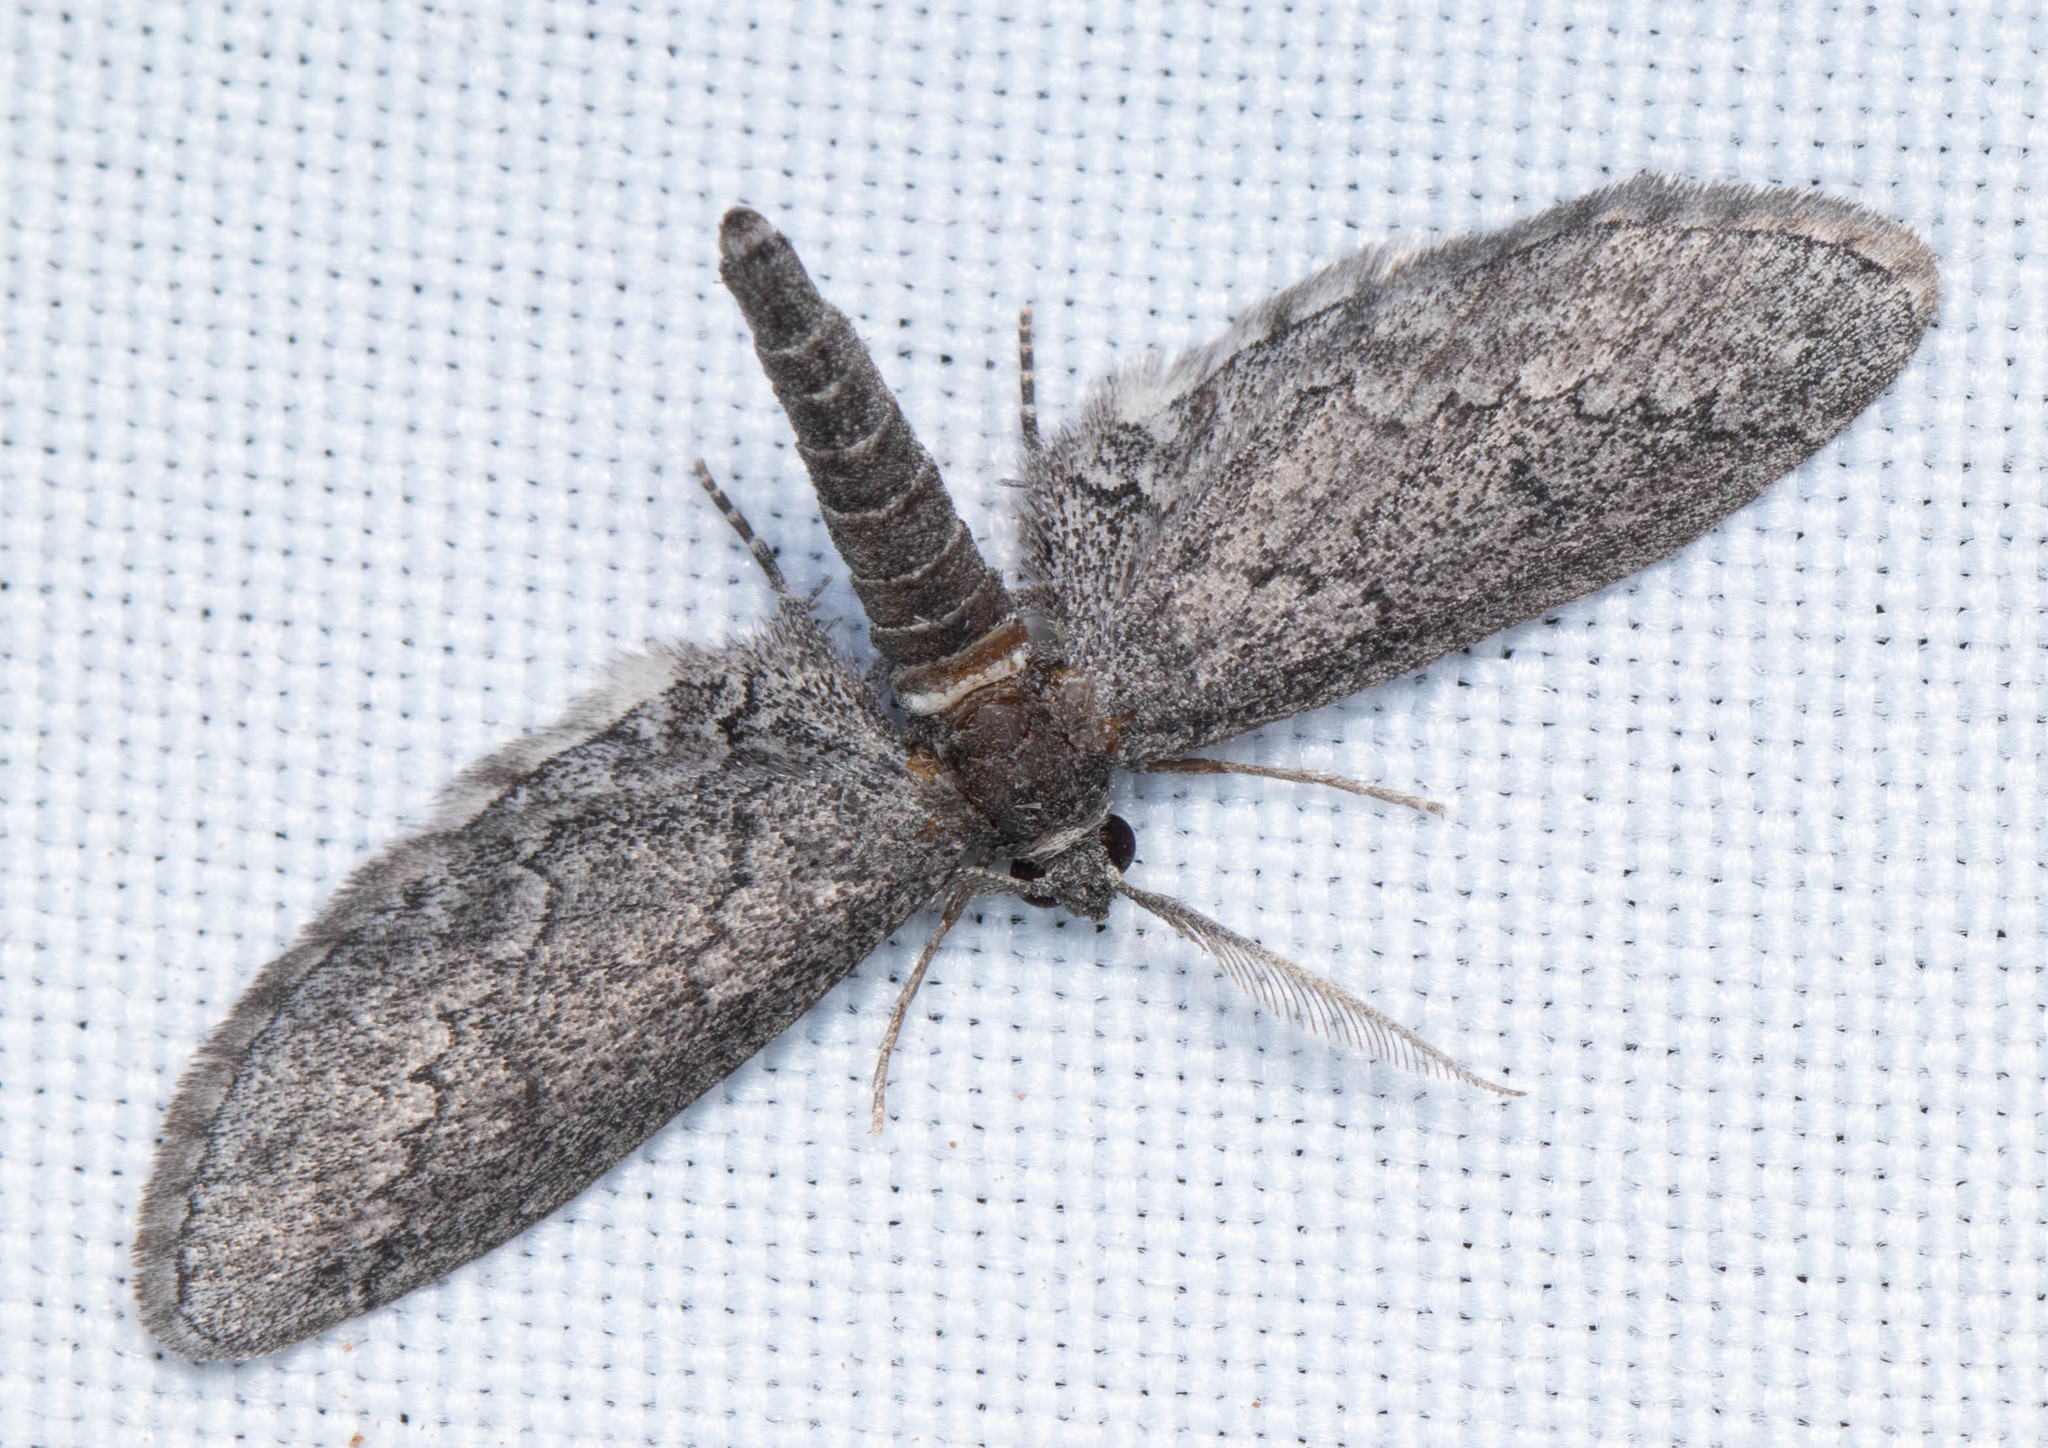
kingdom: Animalia
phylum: Arthropoda
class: Insecta
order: Lepidoptera
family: Geometridae
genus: Glaucina
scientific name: Glaucina erroraria
